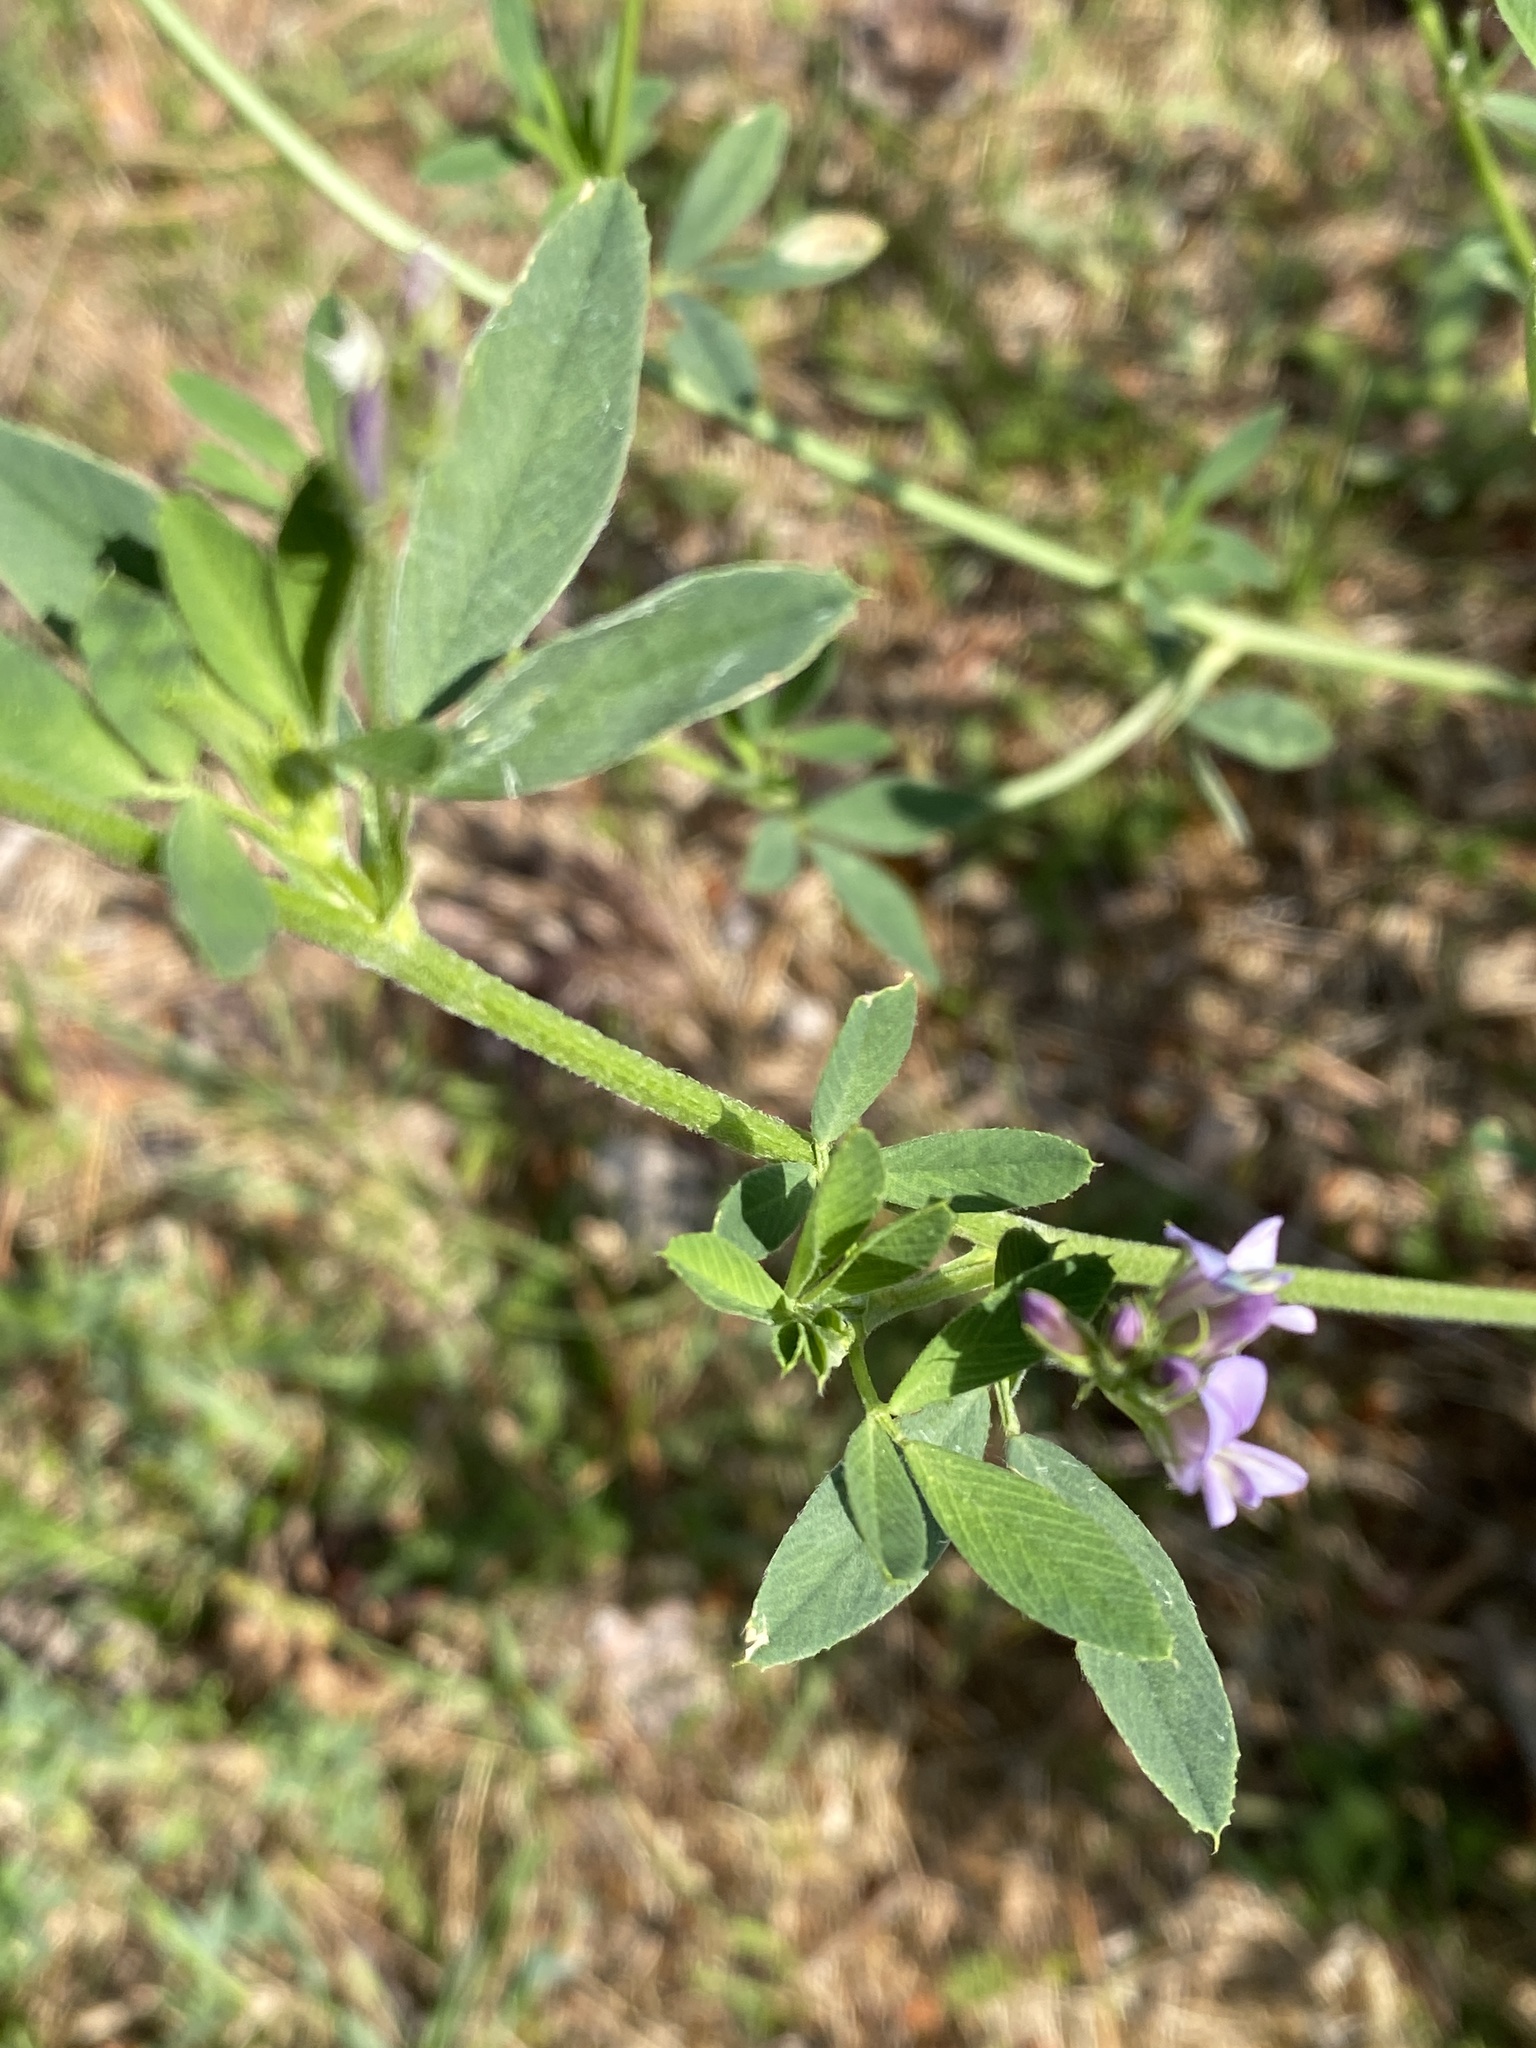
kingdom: Plantae
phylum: Tracheophyta
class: Magnoliopsida
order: Fabales
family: Fabaceae
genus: Medicago
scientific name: Medicago sativa
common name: Alfalfa
